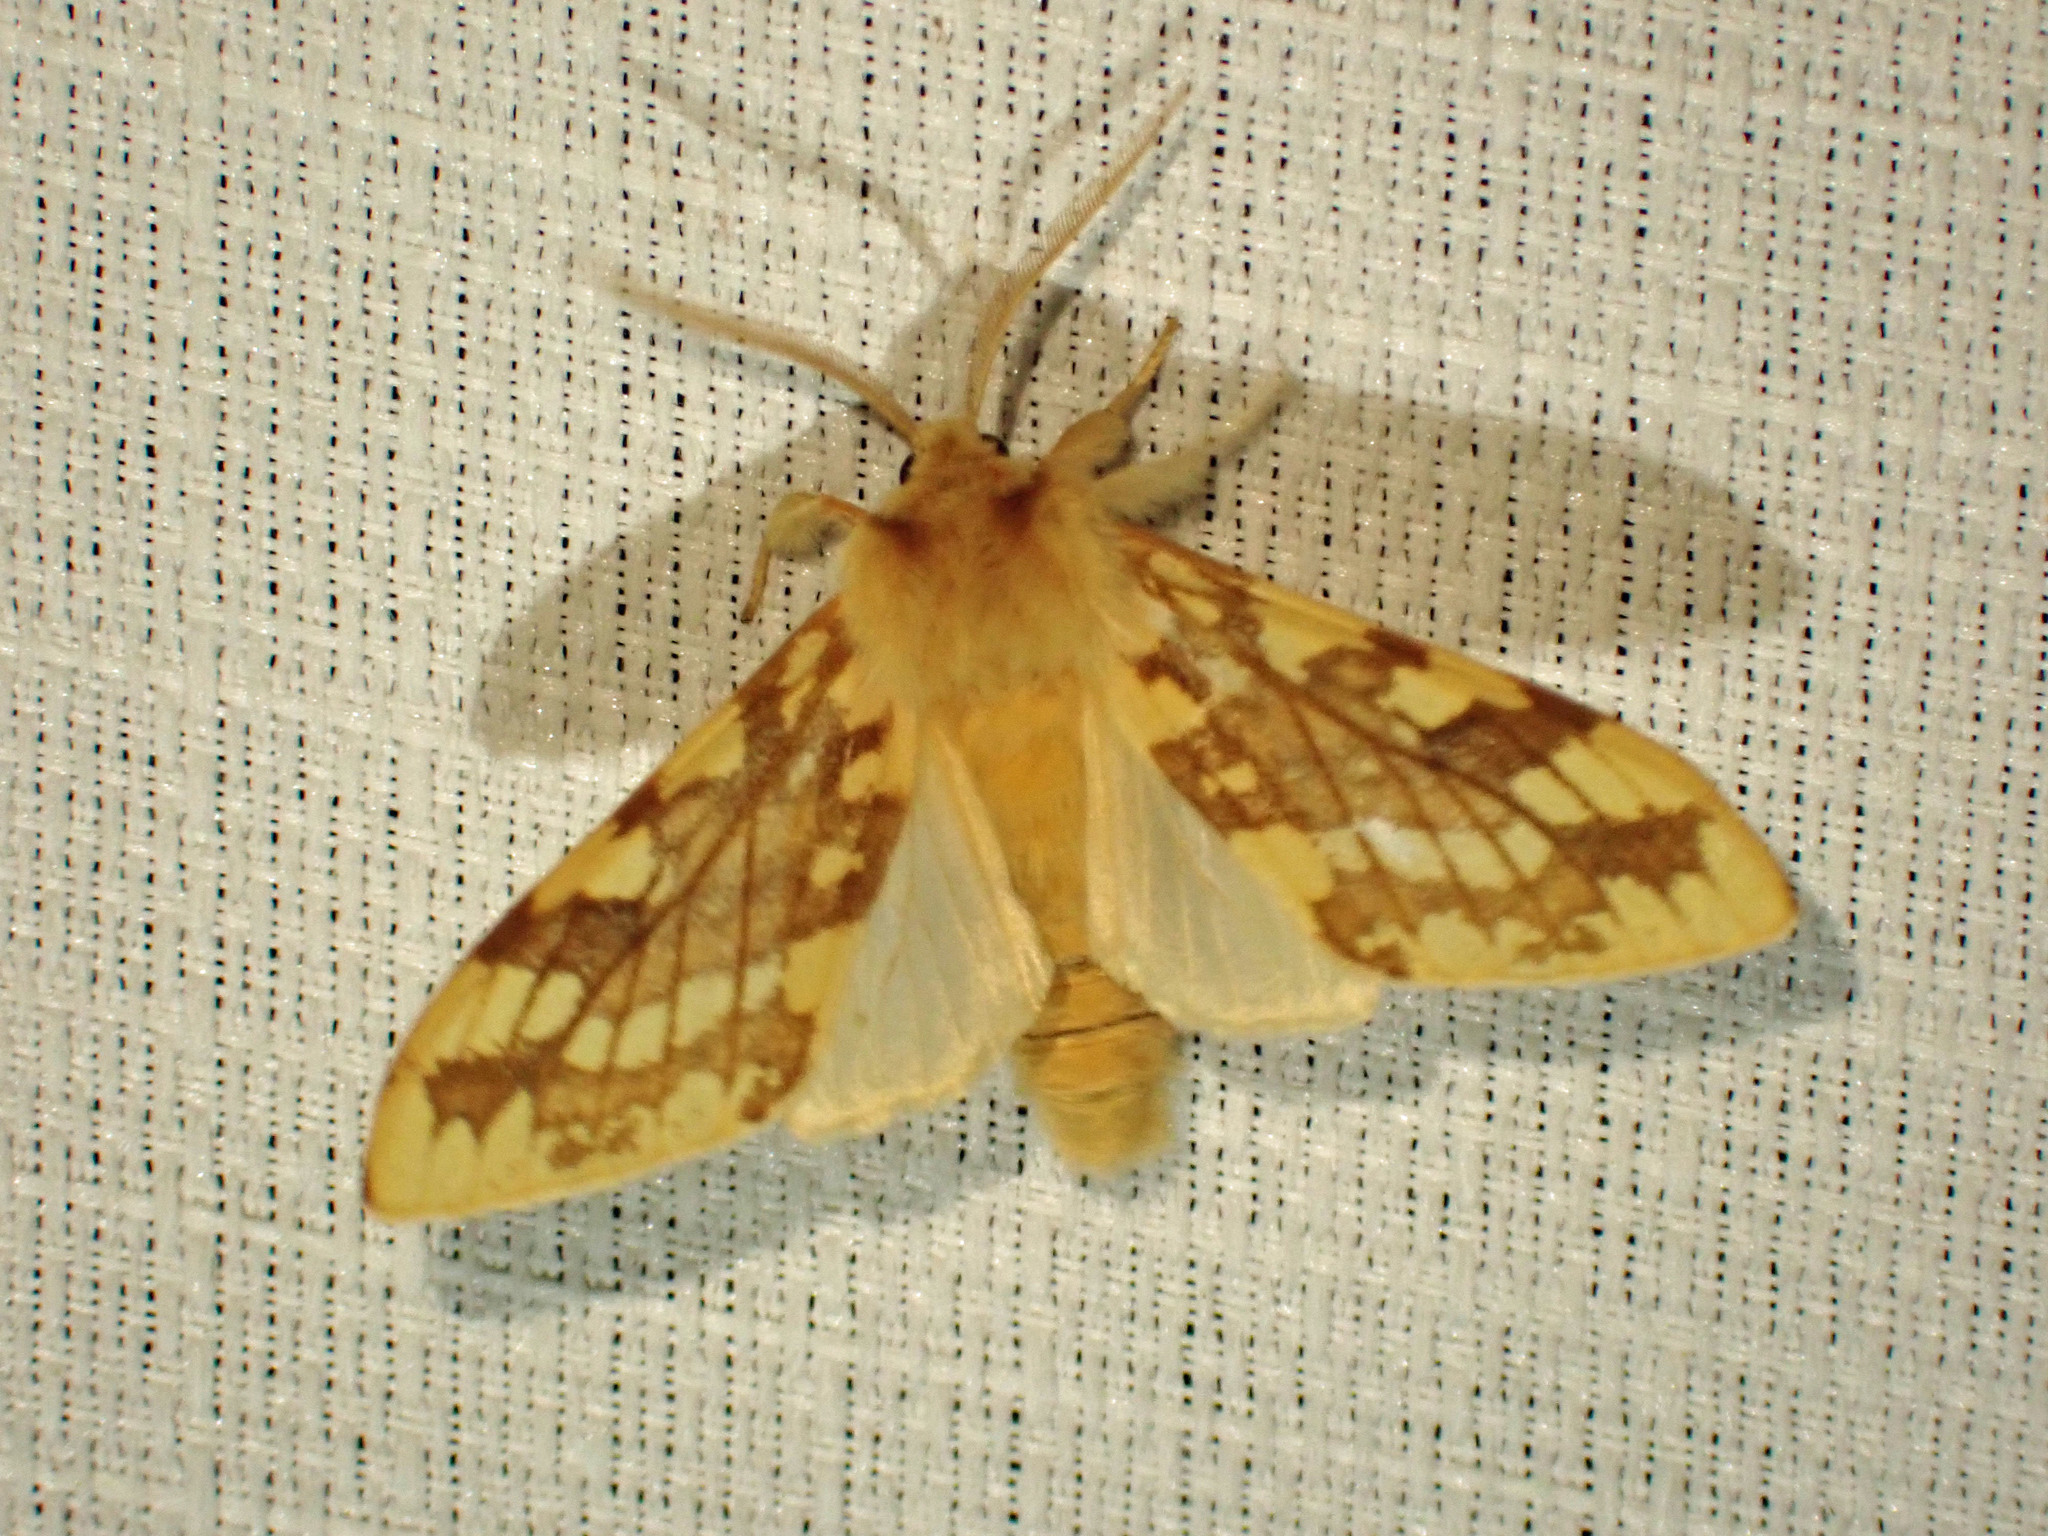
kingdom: Animalia
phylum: Arthropoda
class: Insecta
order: Lepidoptera
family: Erebidae
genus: Lophocampa
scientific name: Lophocampa maculata
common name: Spotted tussock moth
